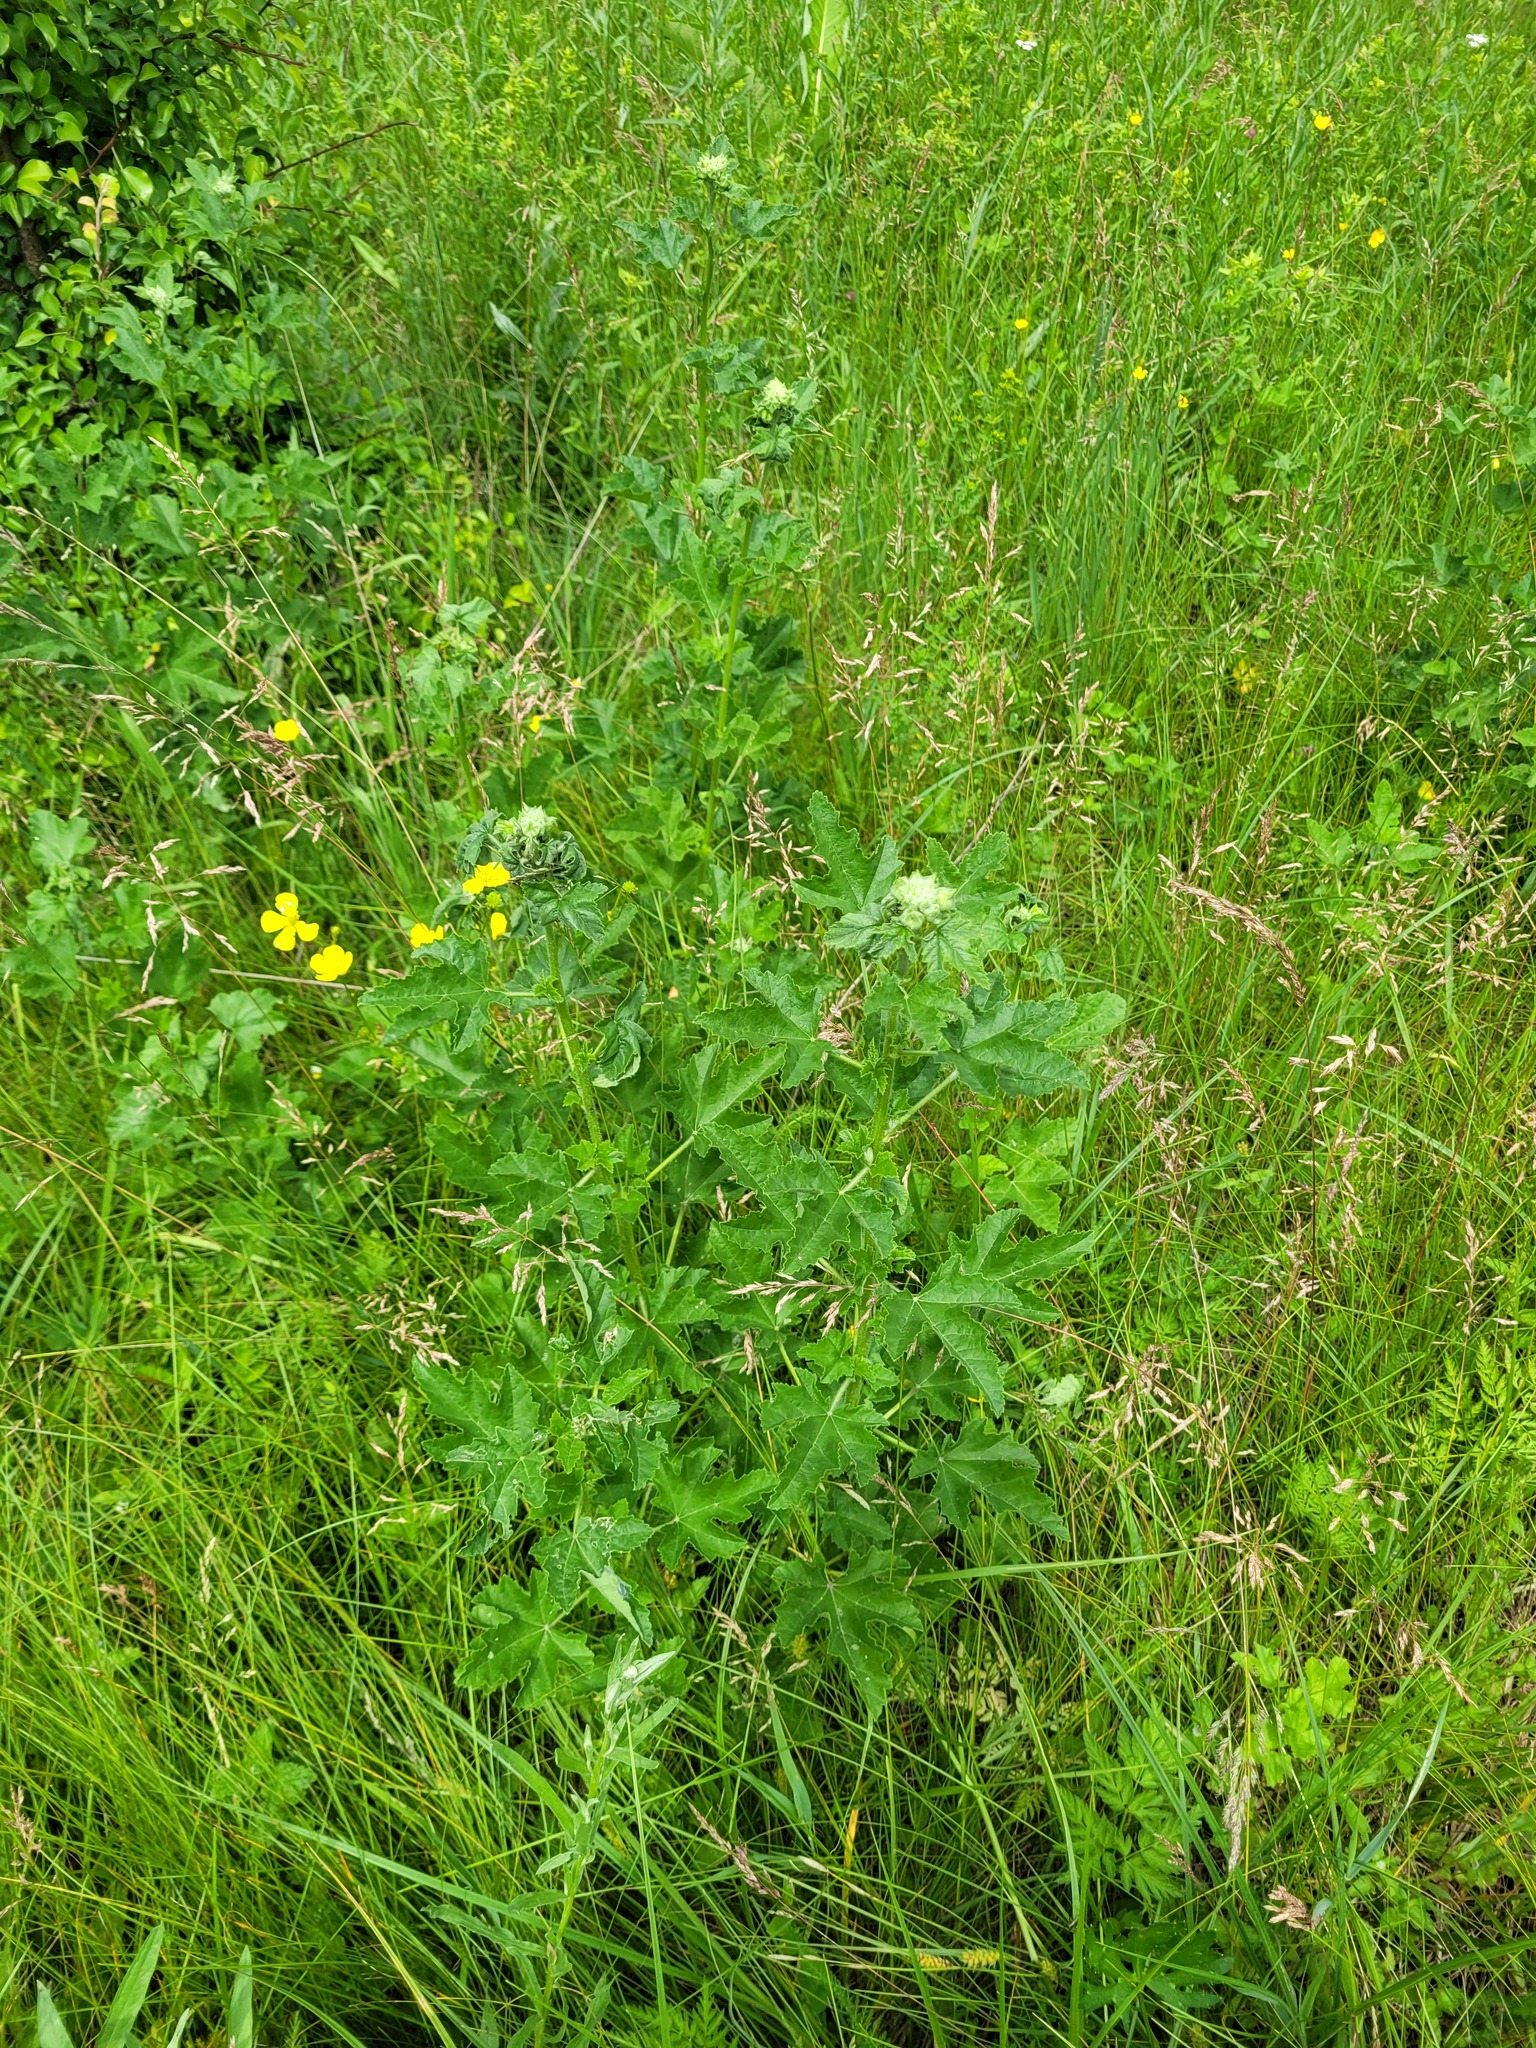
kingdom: Plantae
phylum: Tracheophyta
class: Magnoliopsida
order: Malvales
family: Malvaceae
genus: Malva
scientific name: Malva thuringiaca
